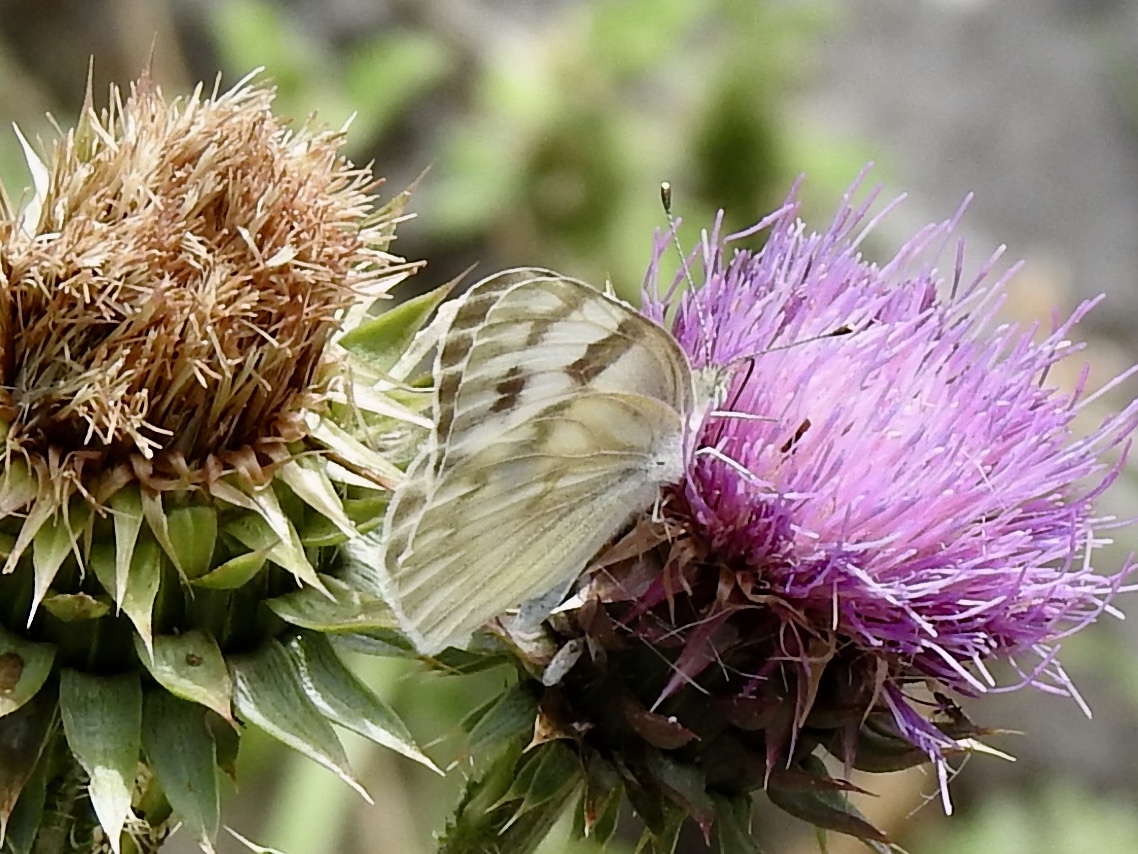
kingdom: Animalia
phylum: Arthropoda
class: Insecta
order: Lepidoptera
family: Pieridae
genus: Pontia
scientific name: Pontia protodice
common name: Checkered white
